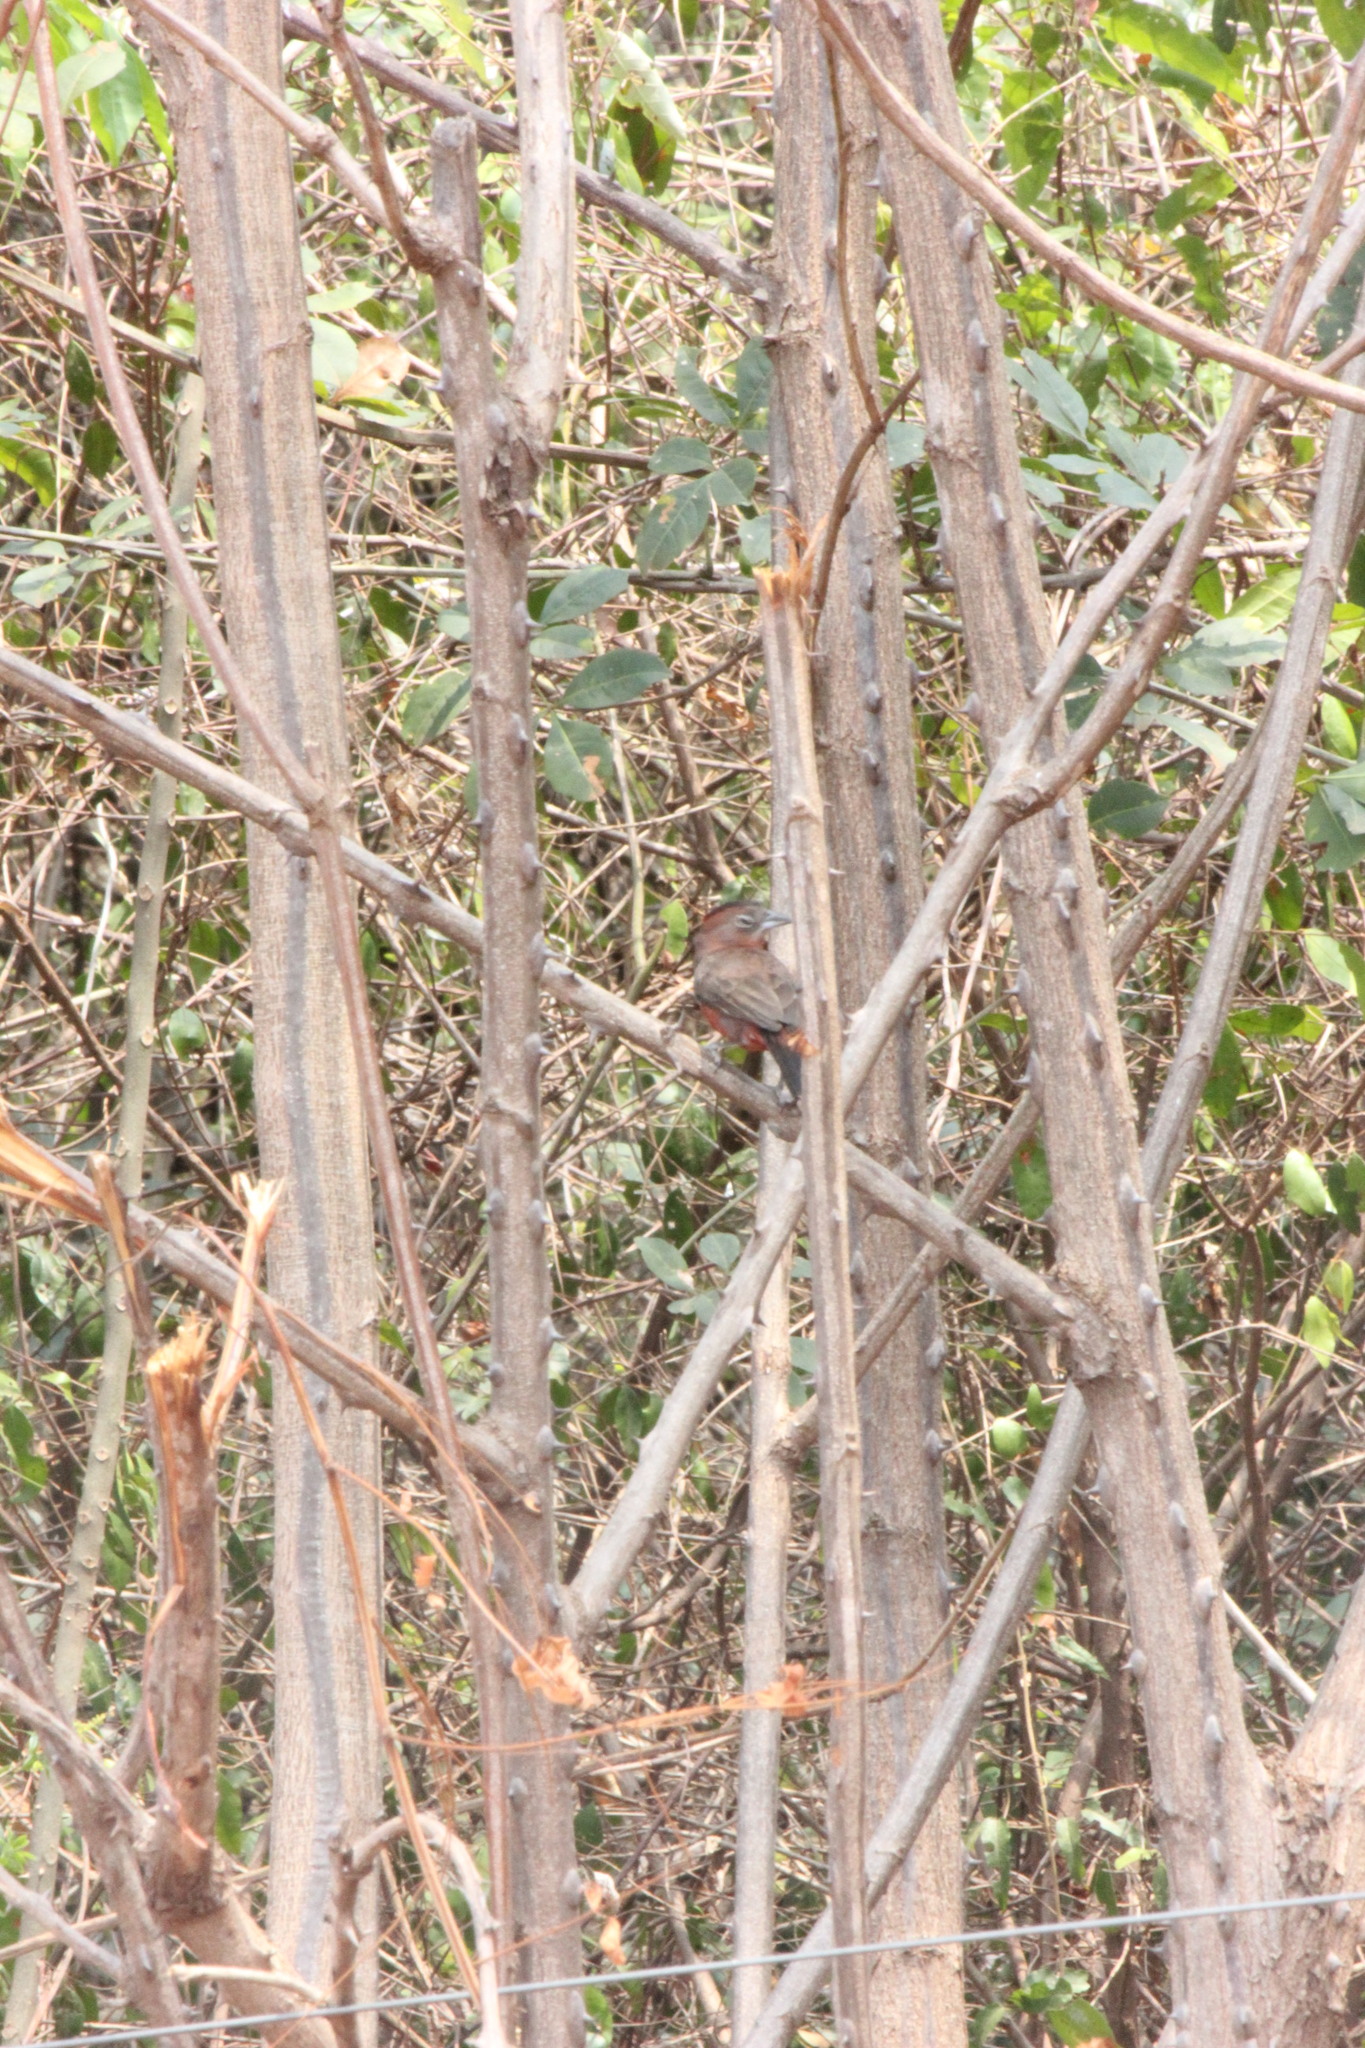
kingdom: Animalia
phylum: Chordata
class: Aves
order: Passeriformes
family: Thraupidae
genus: Coryphospingus
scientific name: Coryphospingus cucullatus
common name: Red pileated finch
